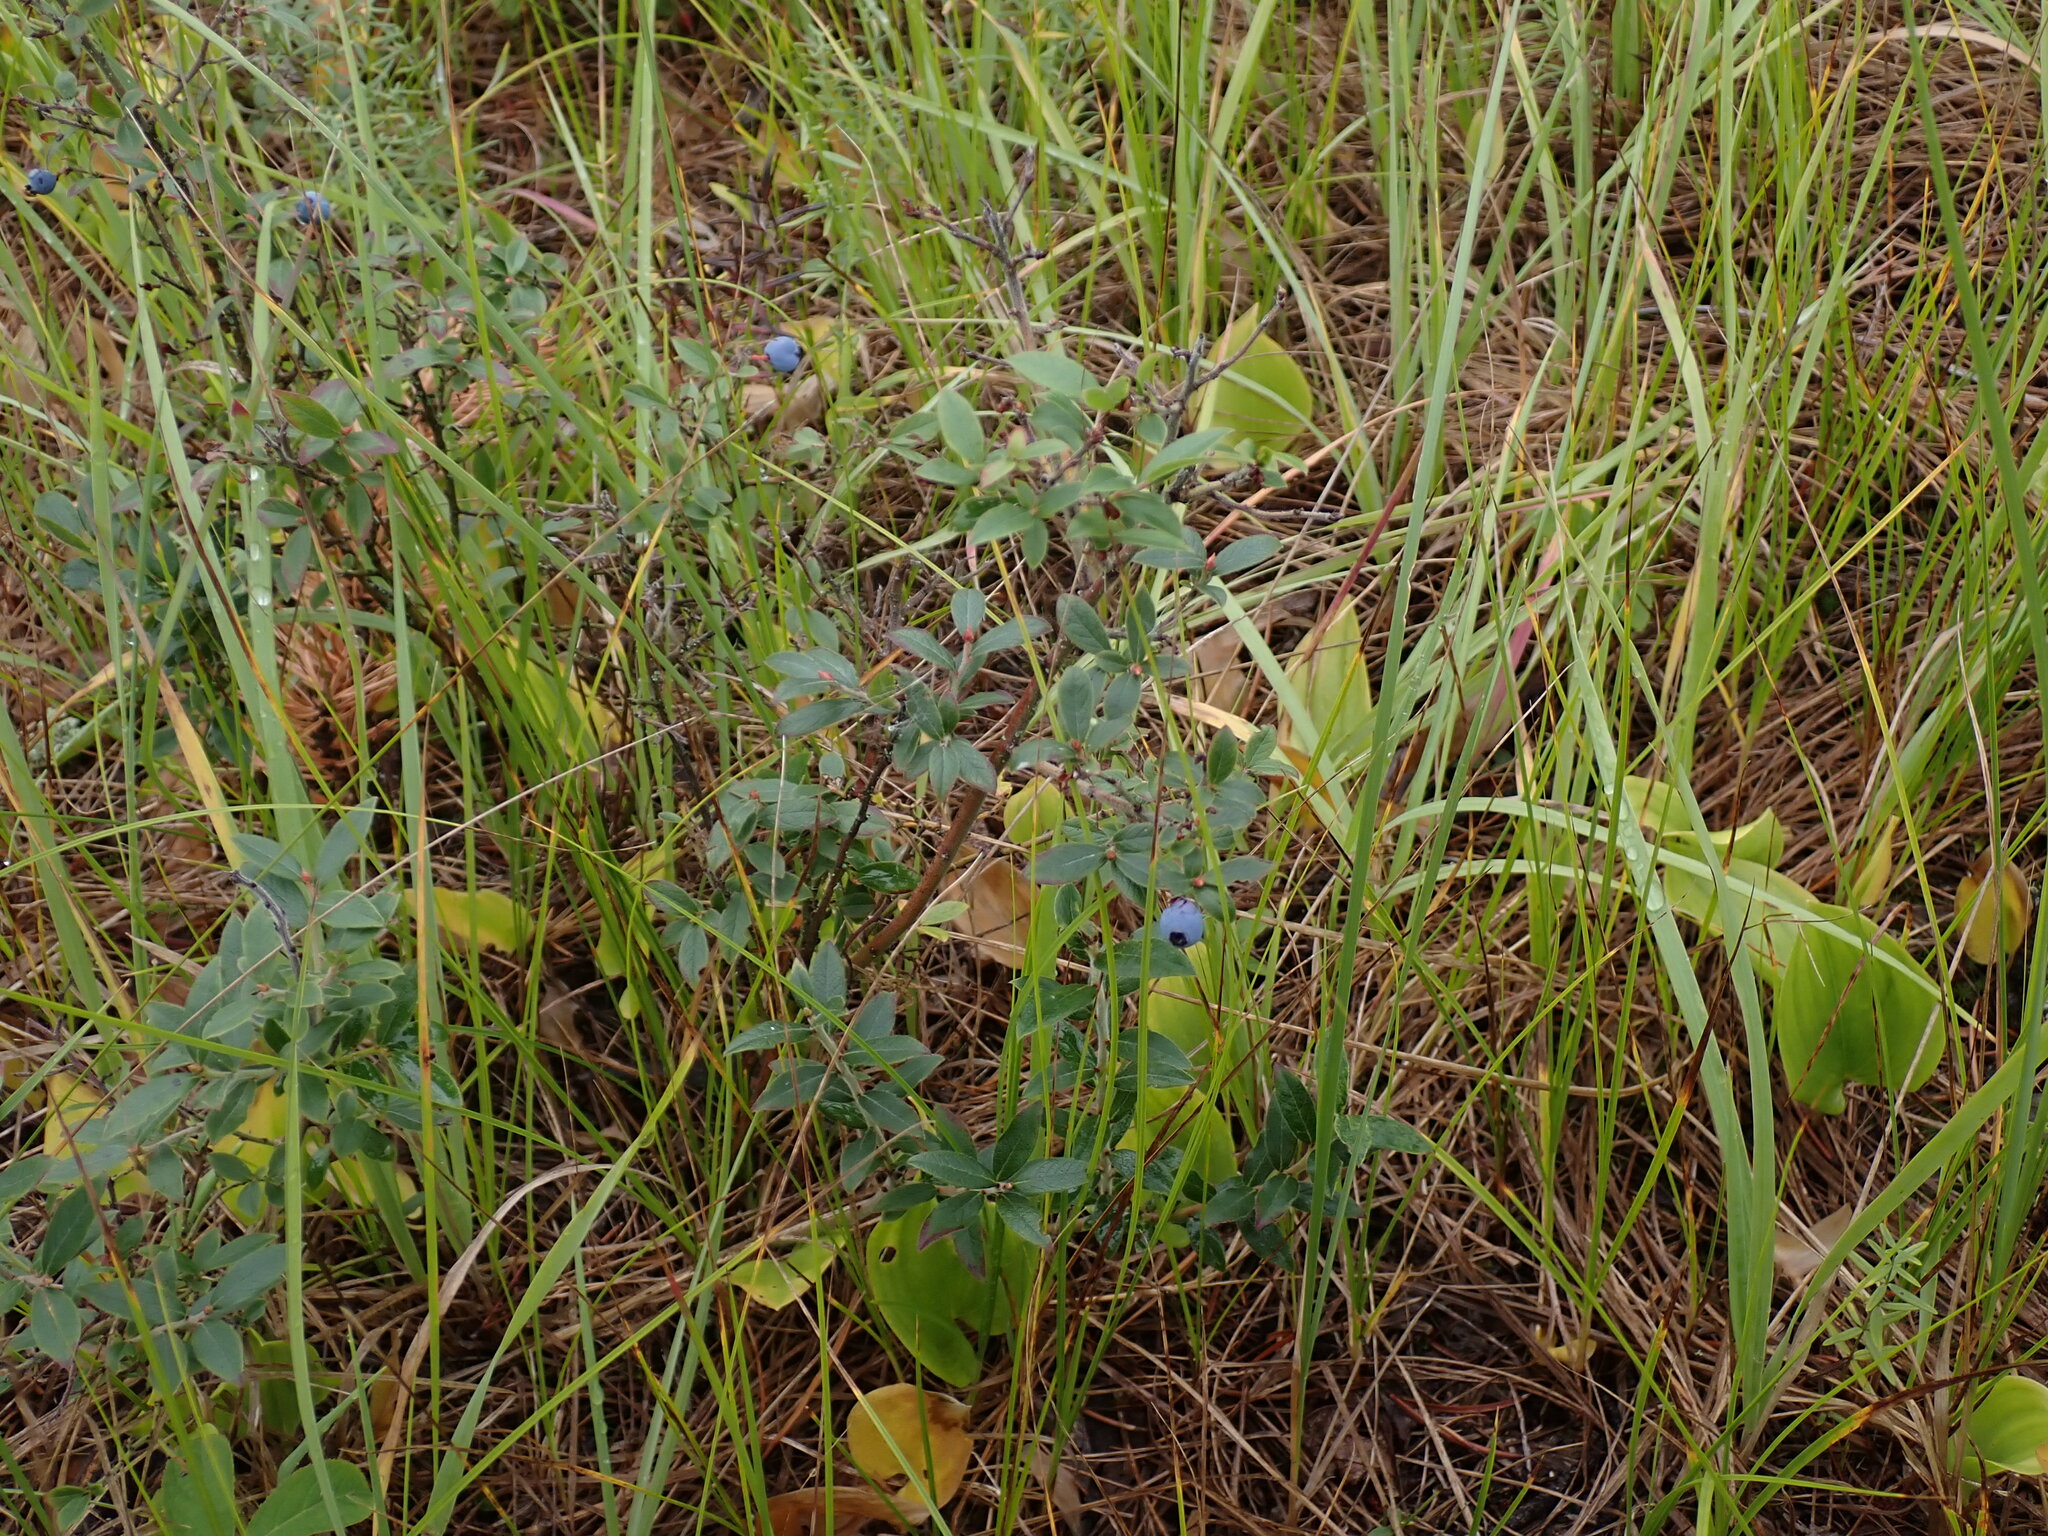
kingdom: Plantae
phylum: Tracheophyta
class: Magnoliopsida
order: Ericales
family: Ericaceae
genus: Vaccinium
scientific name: Vaccinium myrtilloides
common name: Canada blueberry
